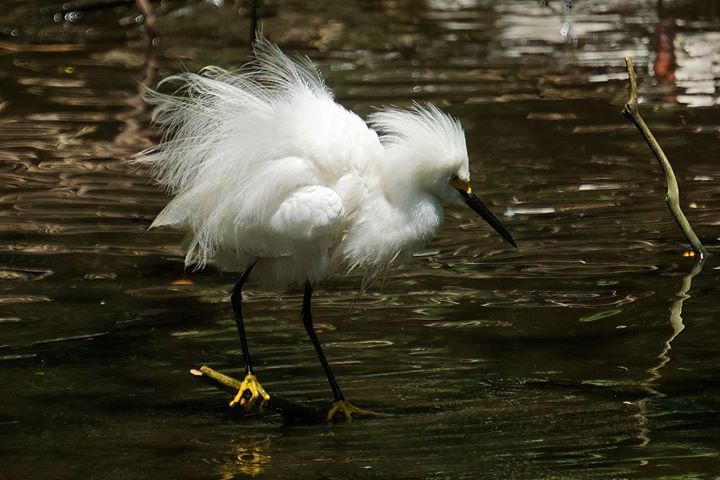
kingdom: Animalia
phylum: Chordata
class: Aves
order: Pelecaniformes
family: Ardeidae
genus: Egretta
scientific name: Egretta thula
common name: Snowy egret
